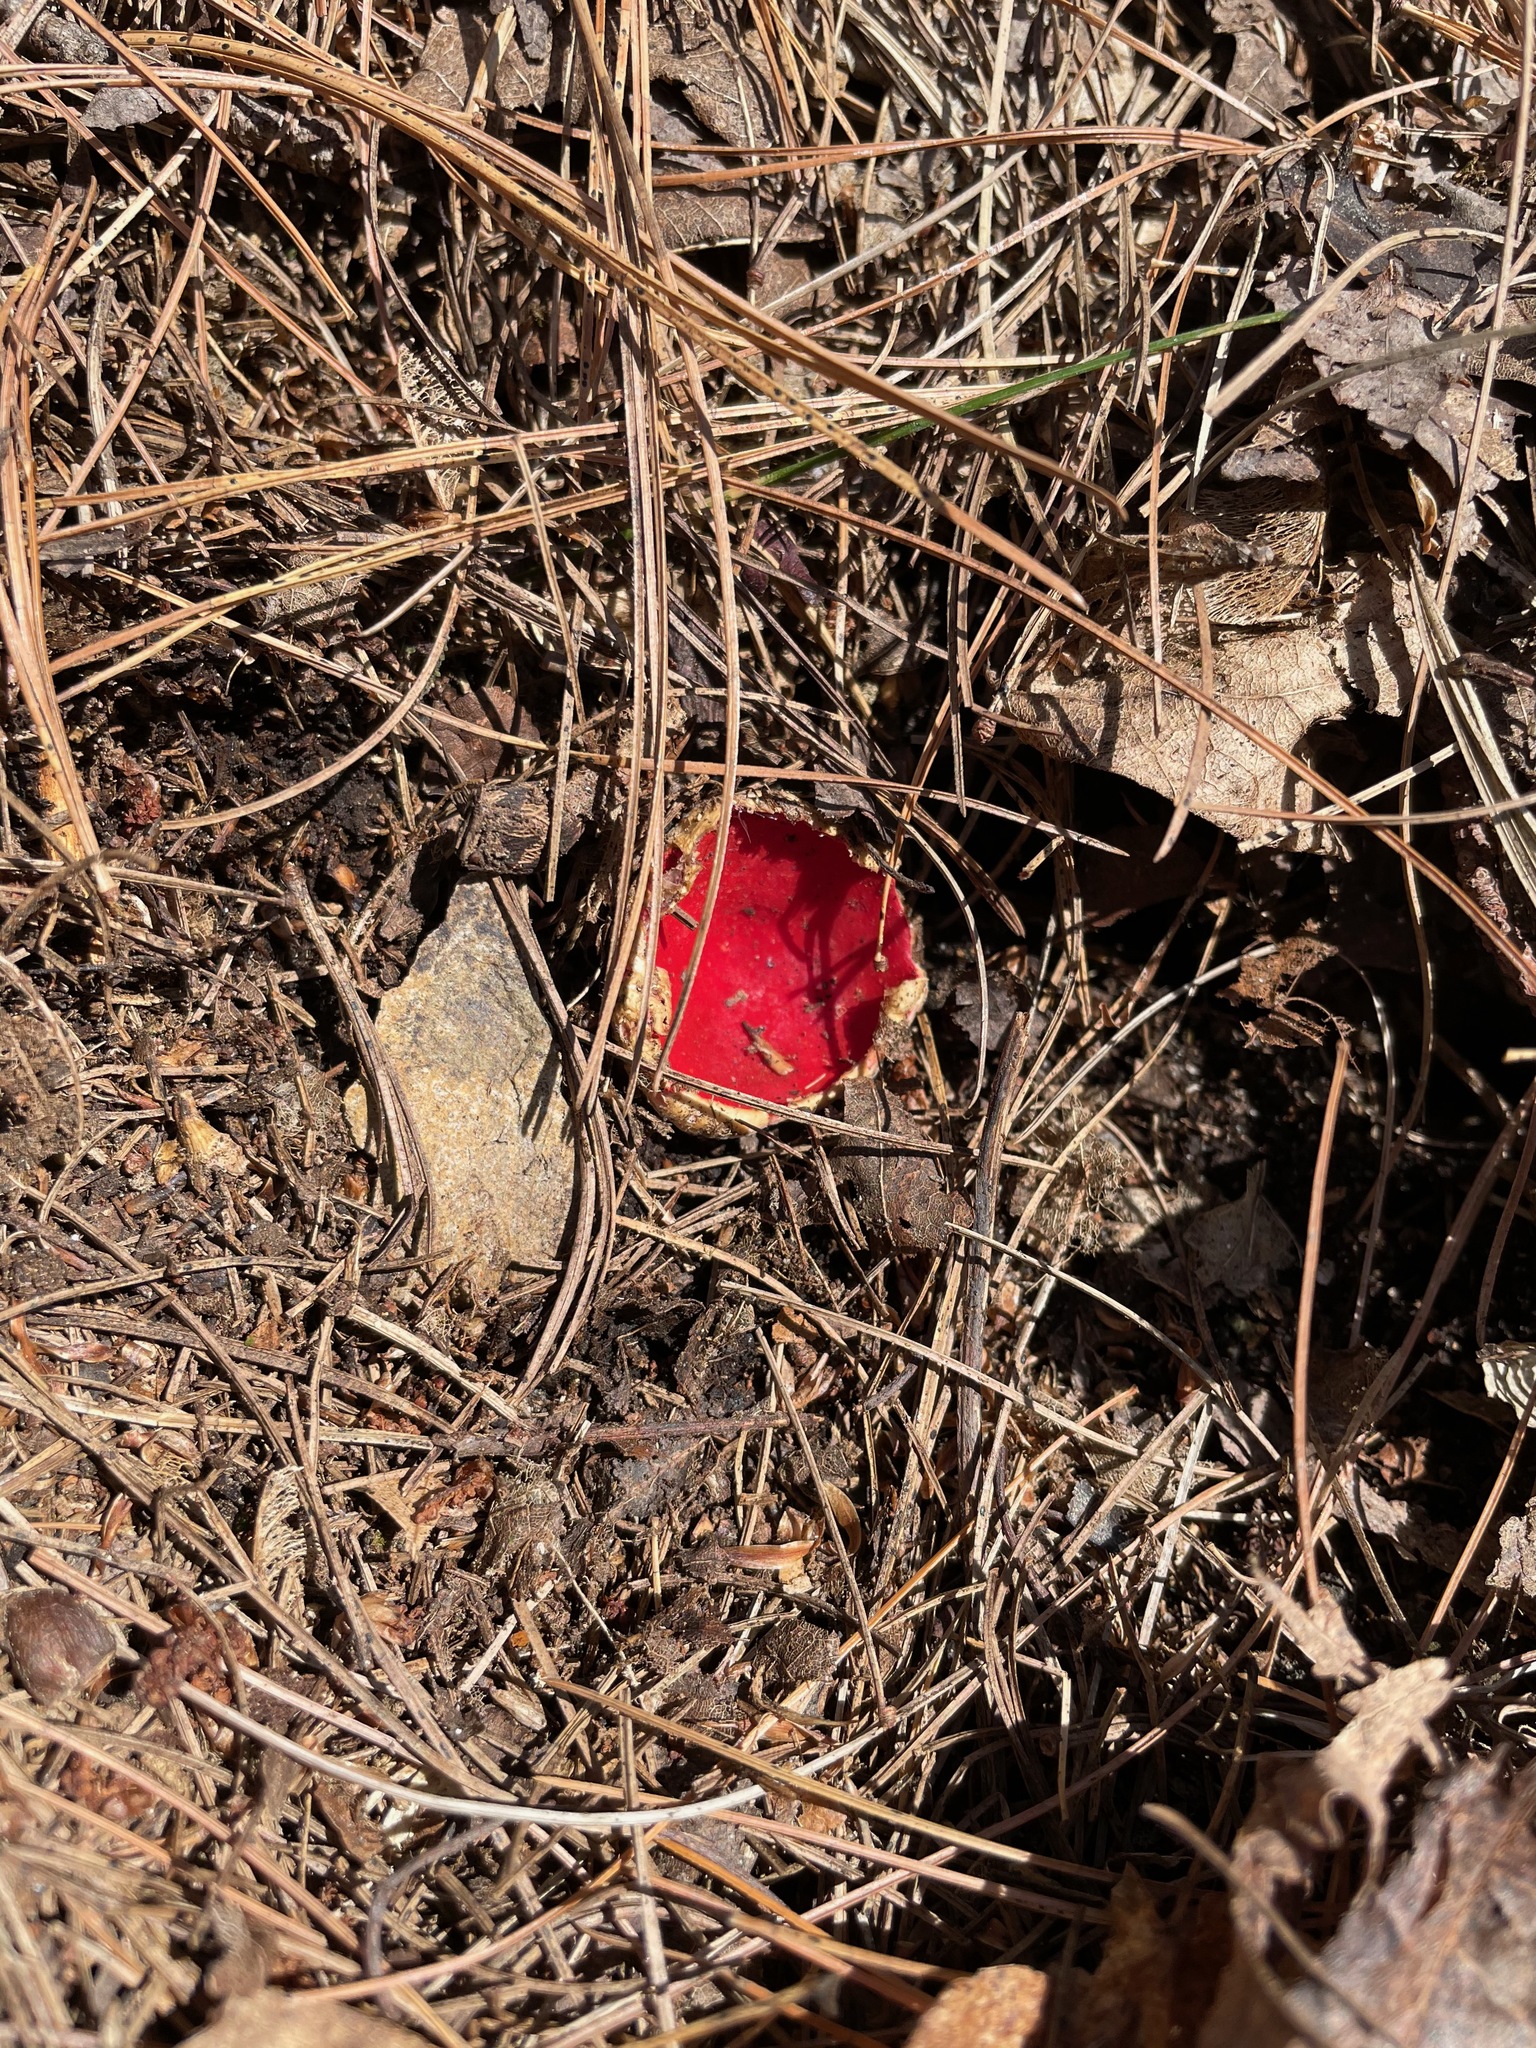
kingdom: Fungi
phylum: Ascomycota
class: Pezizomycetes
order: Pezizales
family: Sarcoscyphaceae
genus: Sarcoscypha
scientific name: Sarcoscypha
